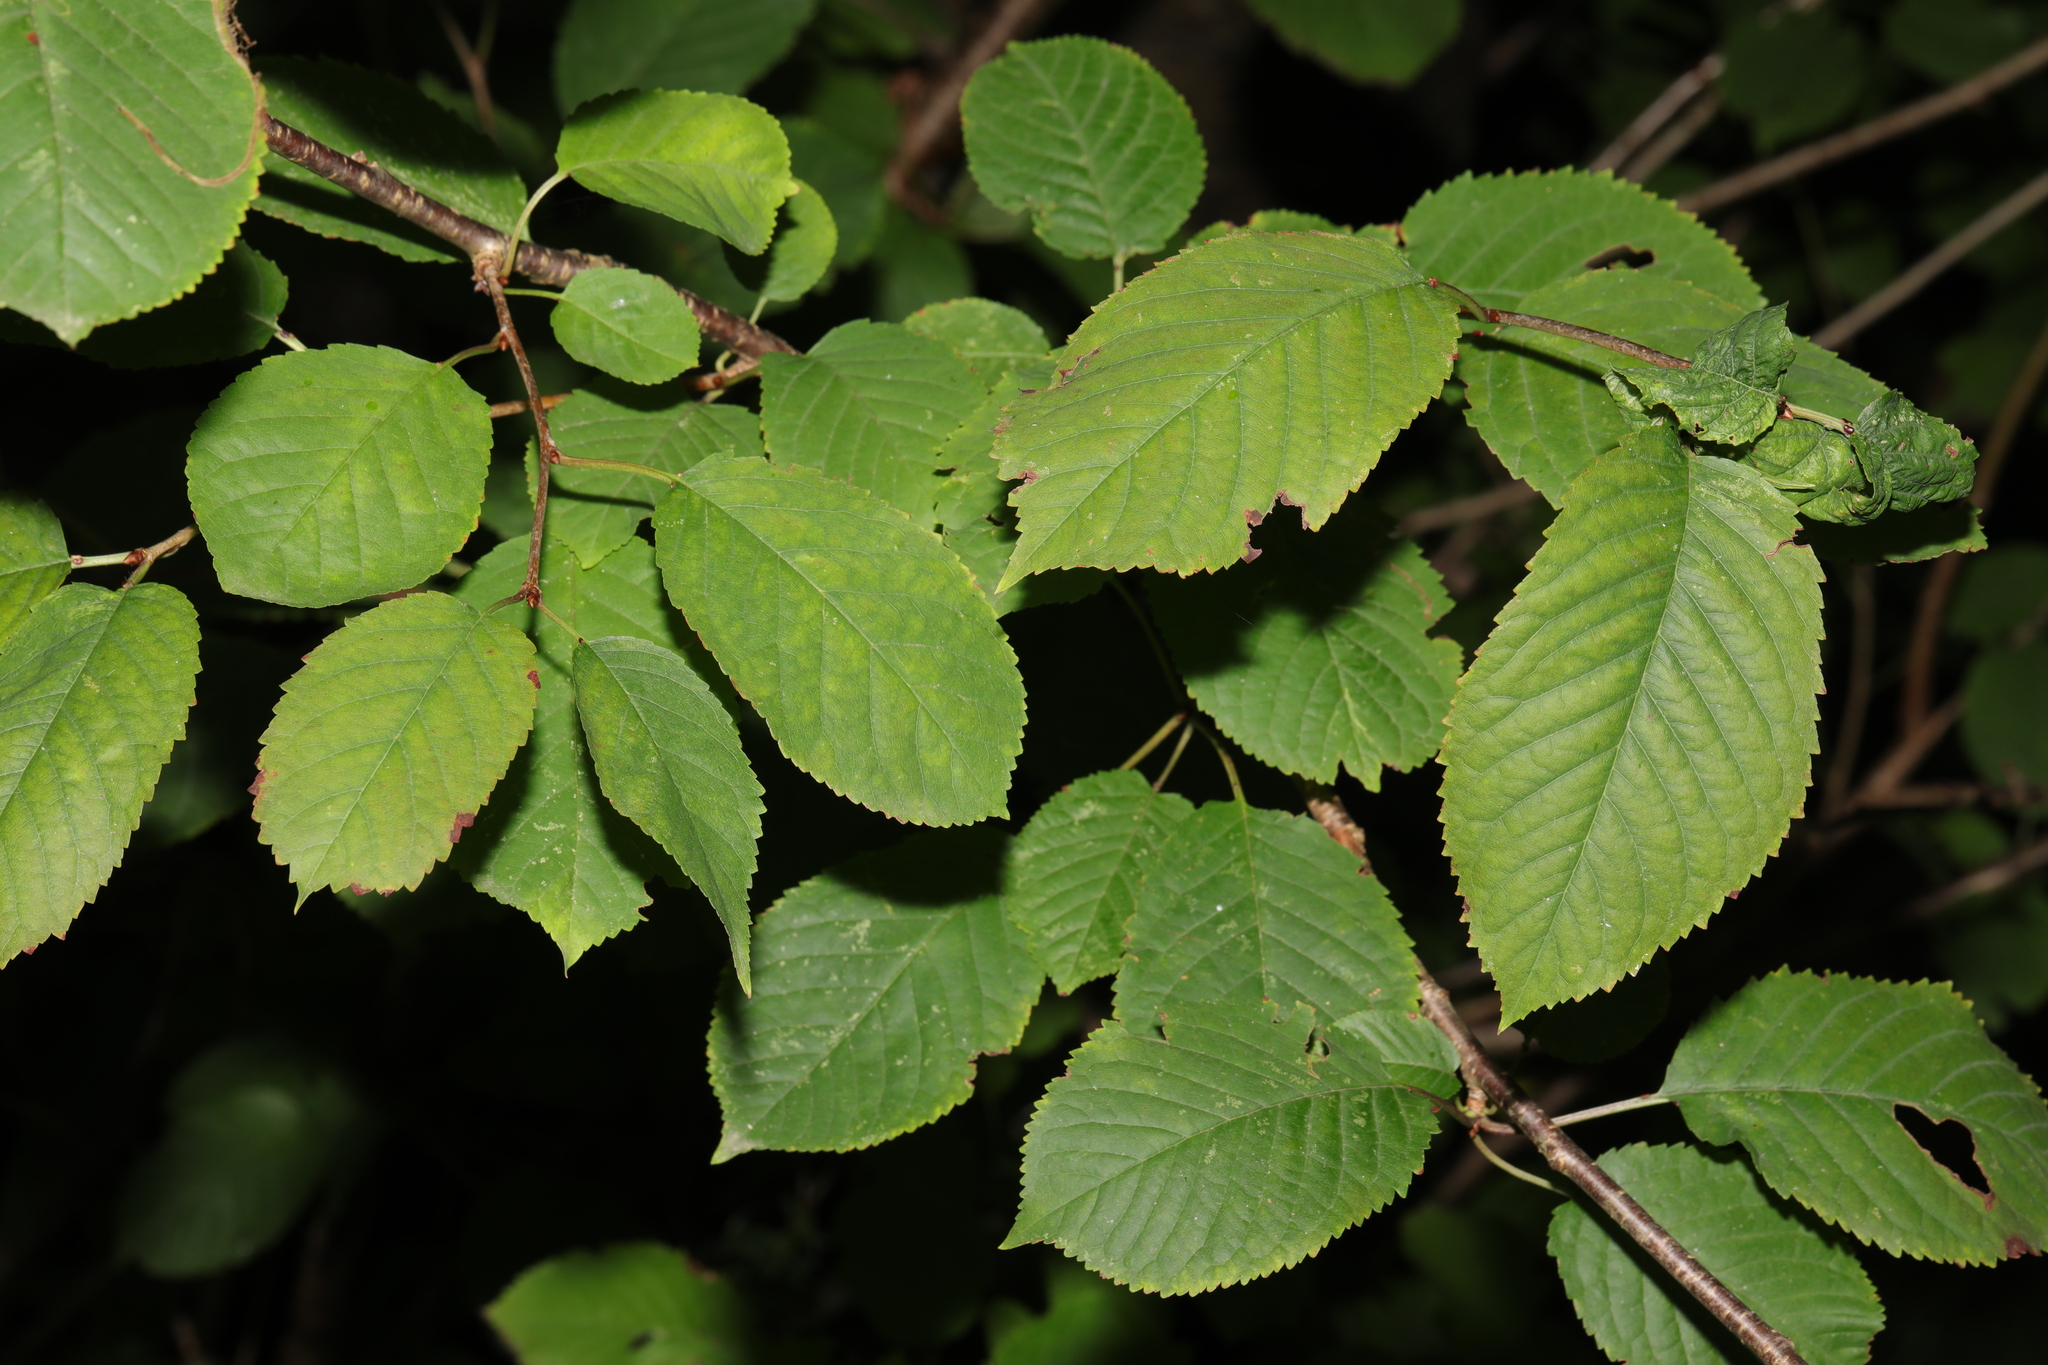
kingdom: Plantae
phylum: Tracheophyta
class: Magnoliopsida
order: Rosales
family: Rosaceae
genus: Prunus
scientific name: Prunus avium
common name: Sweet cherry
